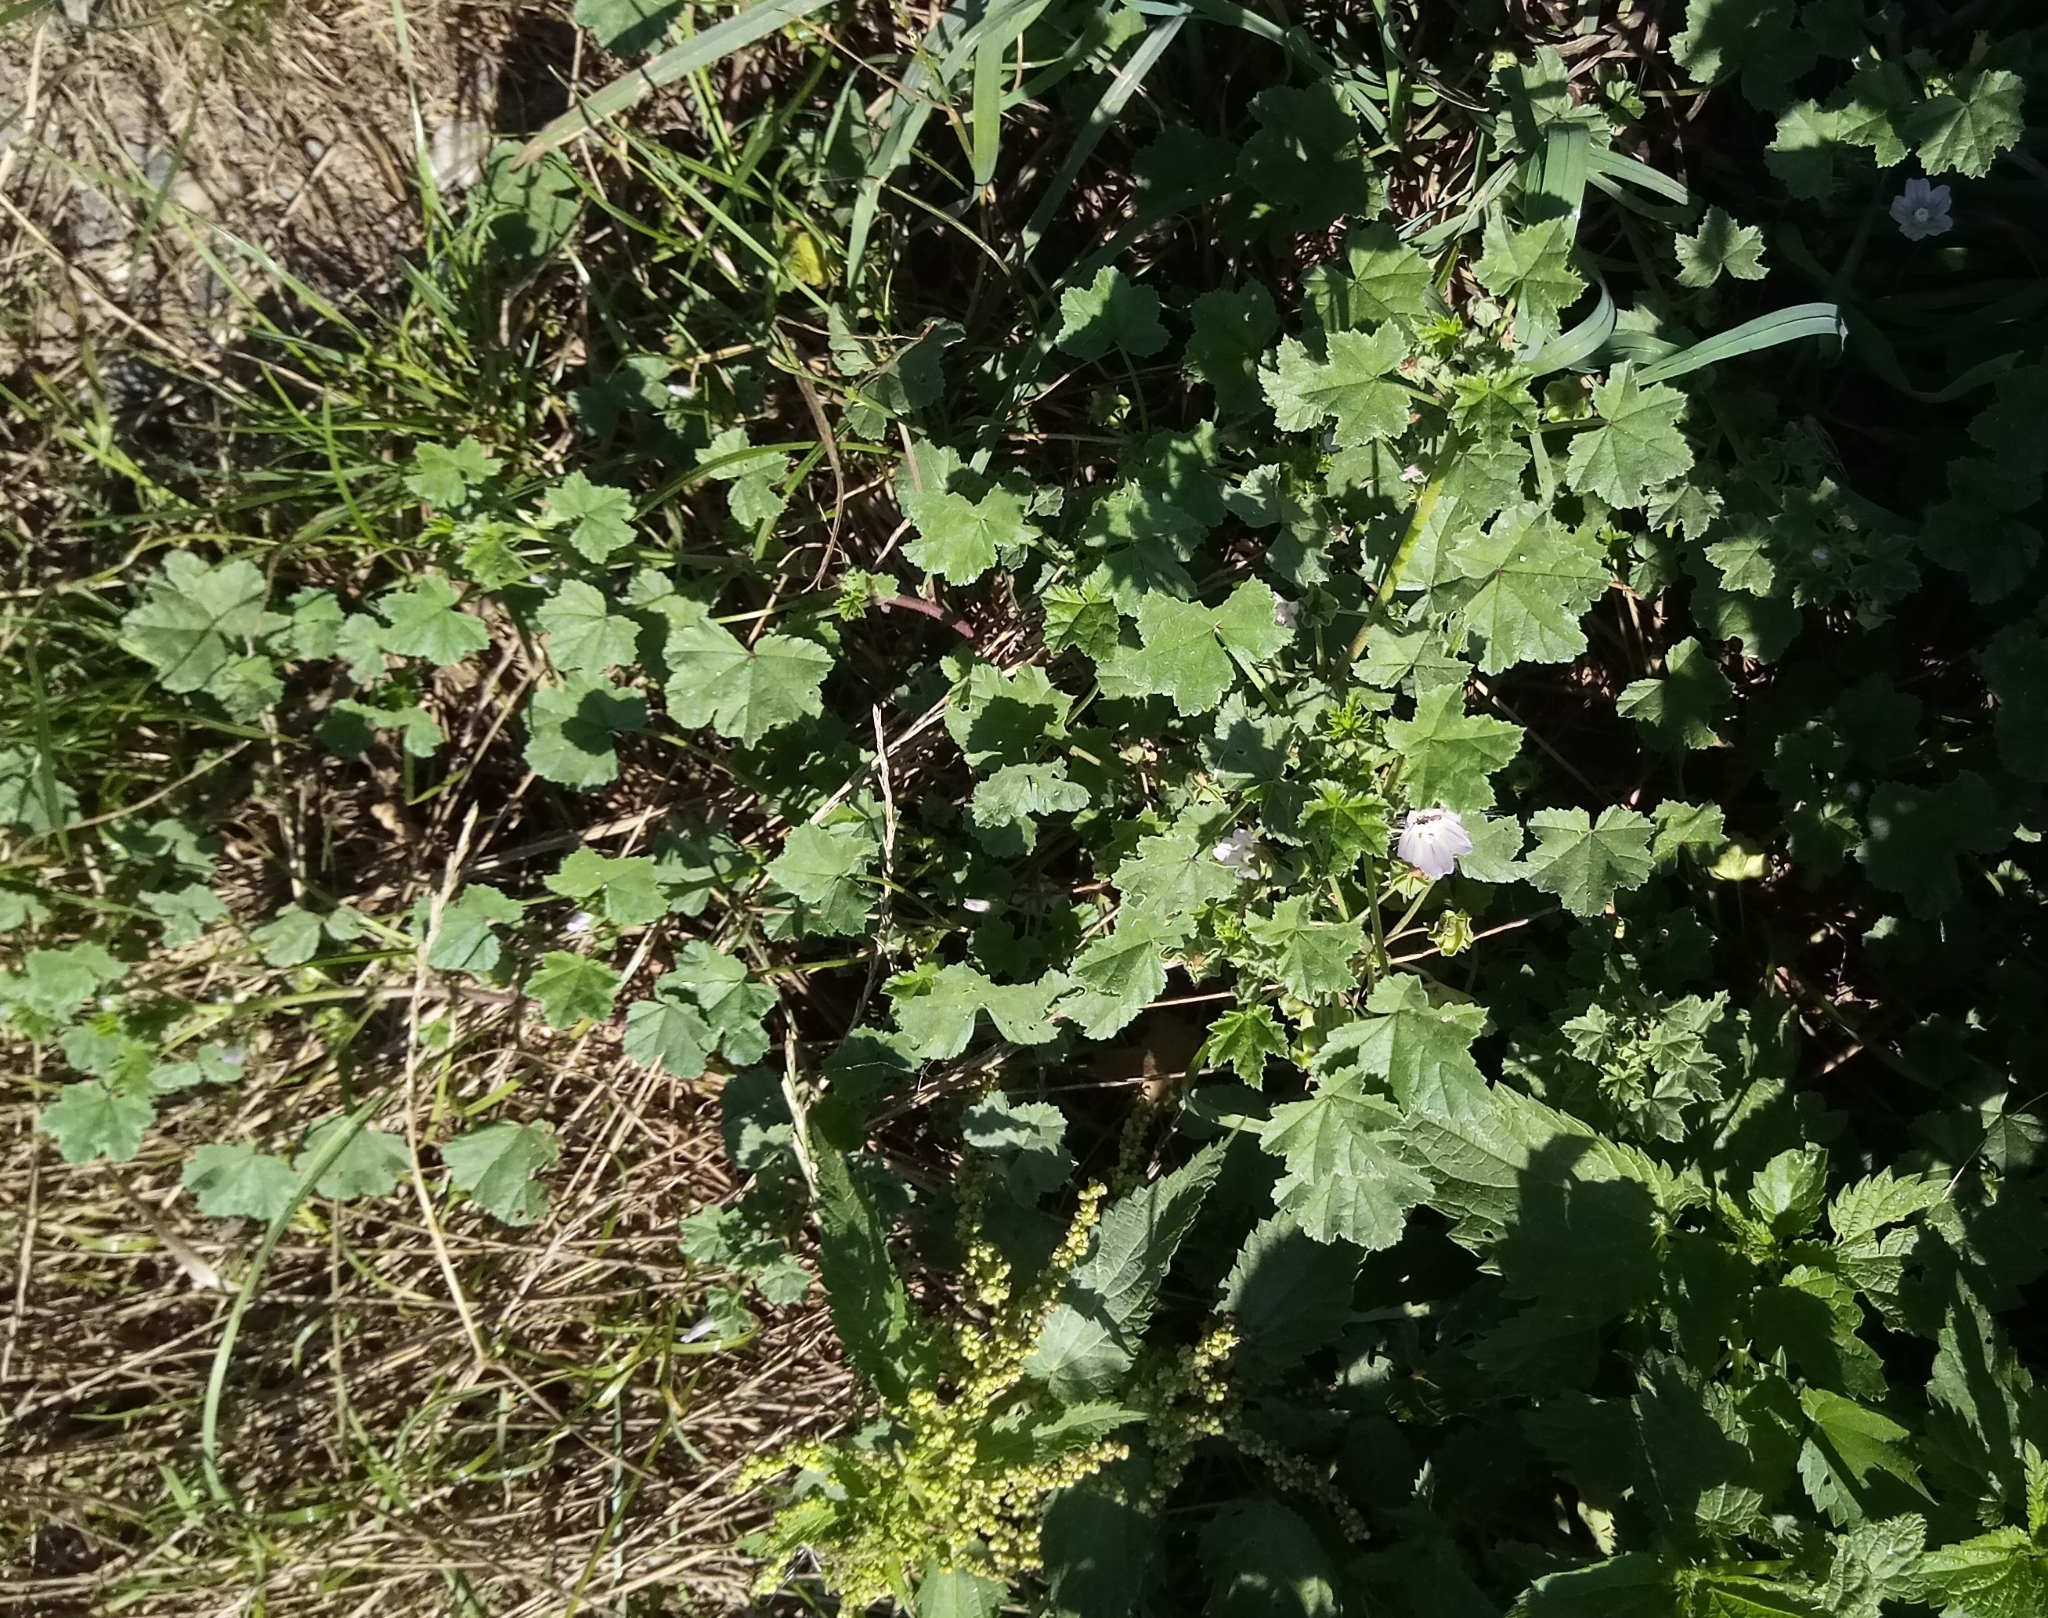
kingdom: Plantae
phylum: Tracheophyta
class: Magnoliopsida
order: Malvales
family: Malvaceae
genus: Malva
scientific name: Malva neglecta
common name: Common mallow
